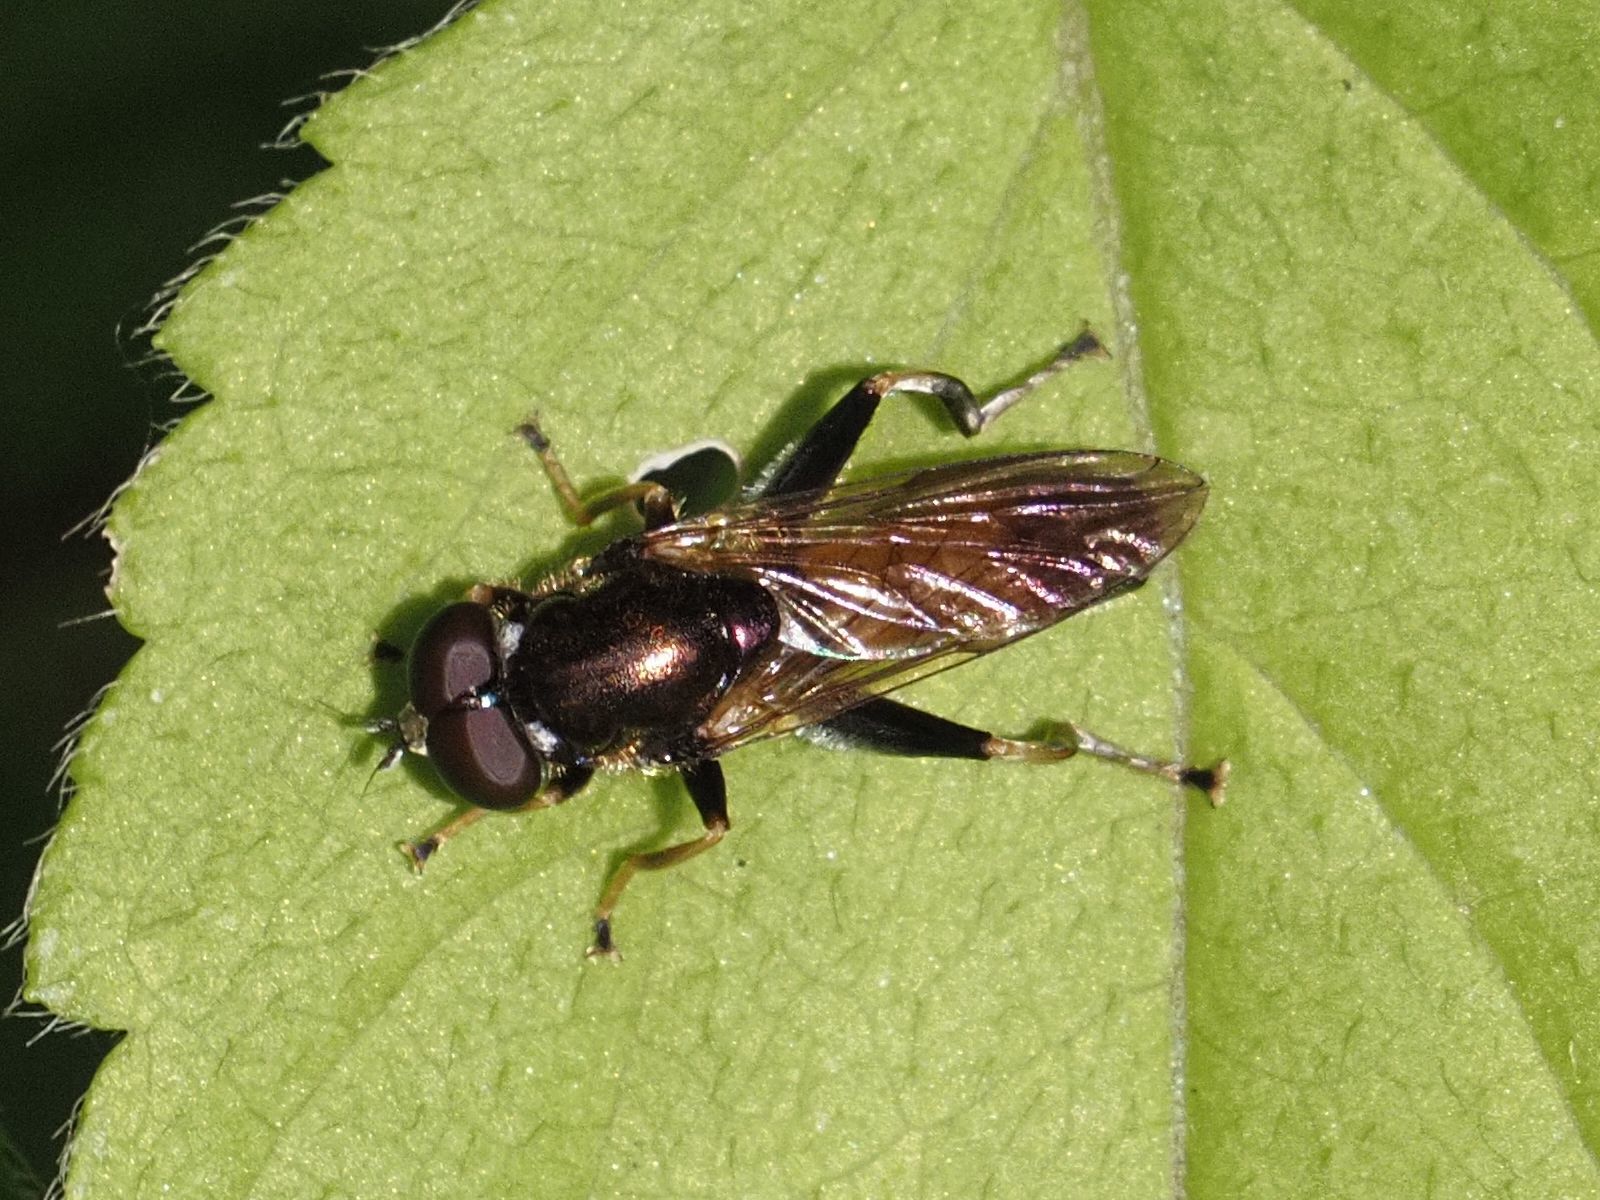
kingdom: Animalia
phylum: Arthropoda
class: Insecta
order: Diptera
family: Syrphidae
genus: Xylota
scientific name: Xylota segnis
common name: Brown-toed forest fly
